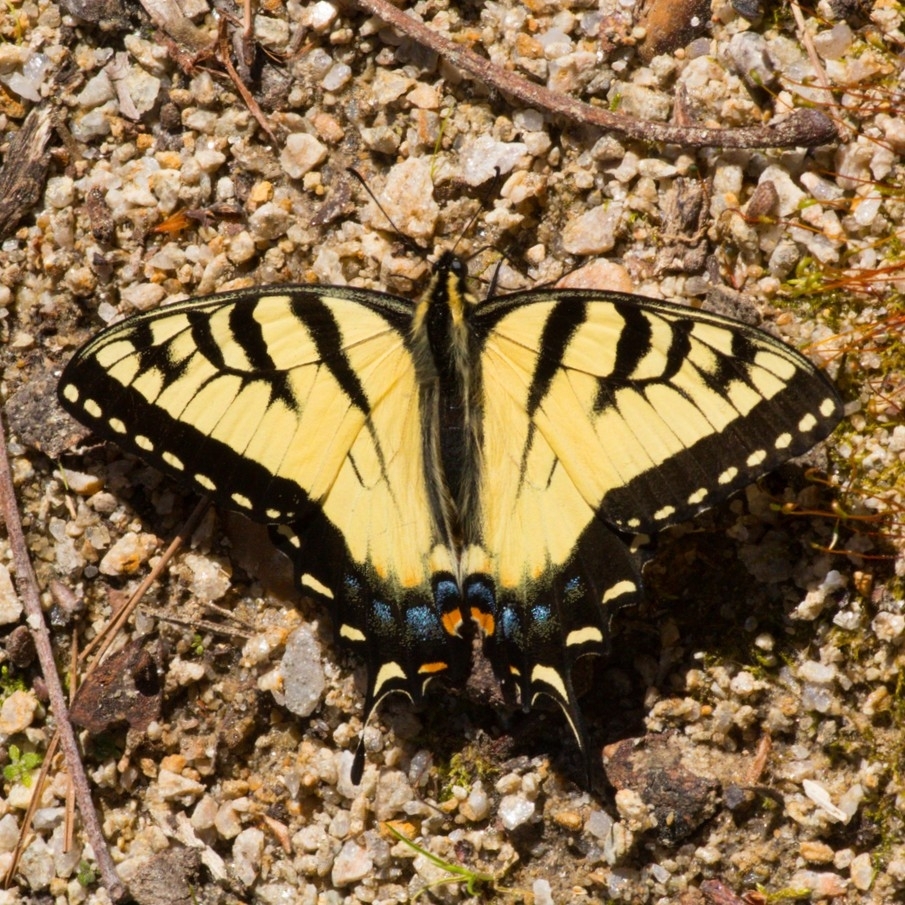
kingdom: Animalia
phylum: Arthropoda
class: Insecta
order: Lepidoptera
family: Papilionidae
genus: Papilio
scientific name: Papilio glaucus
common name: Tiger swallowtail
